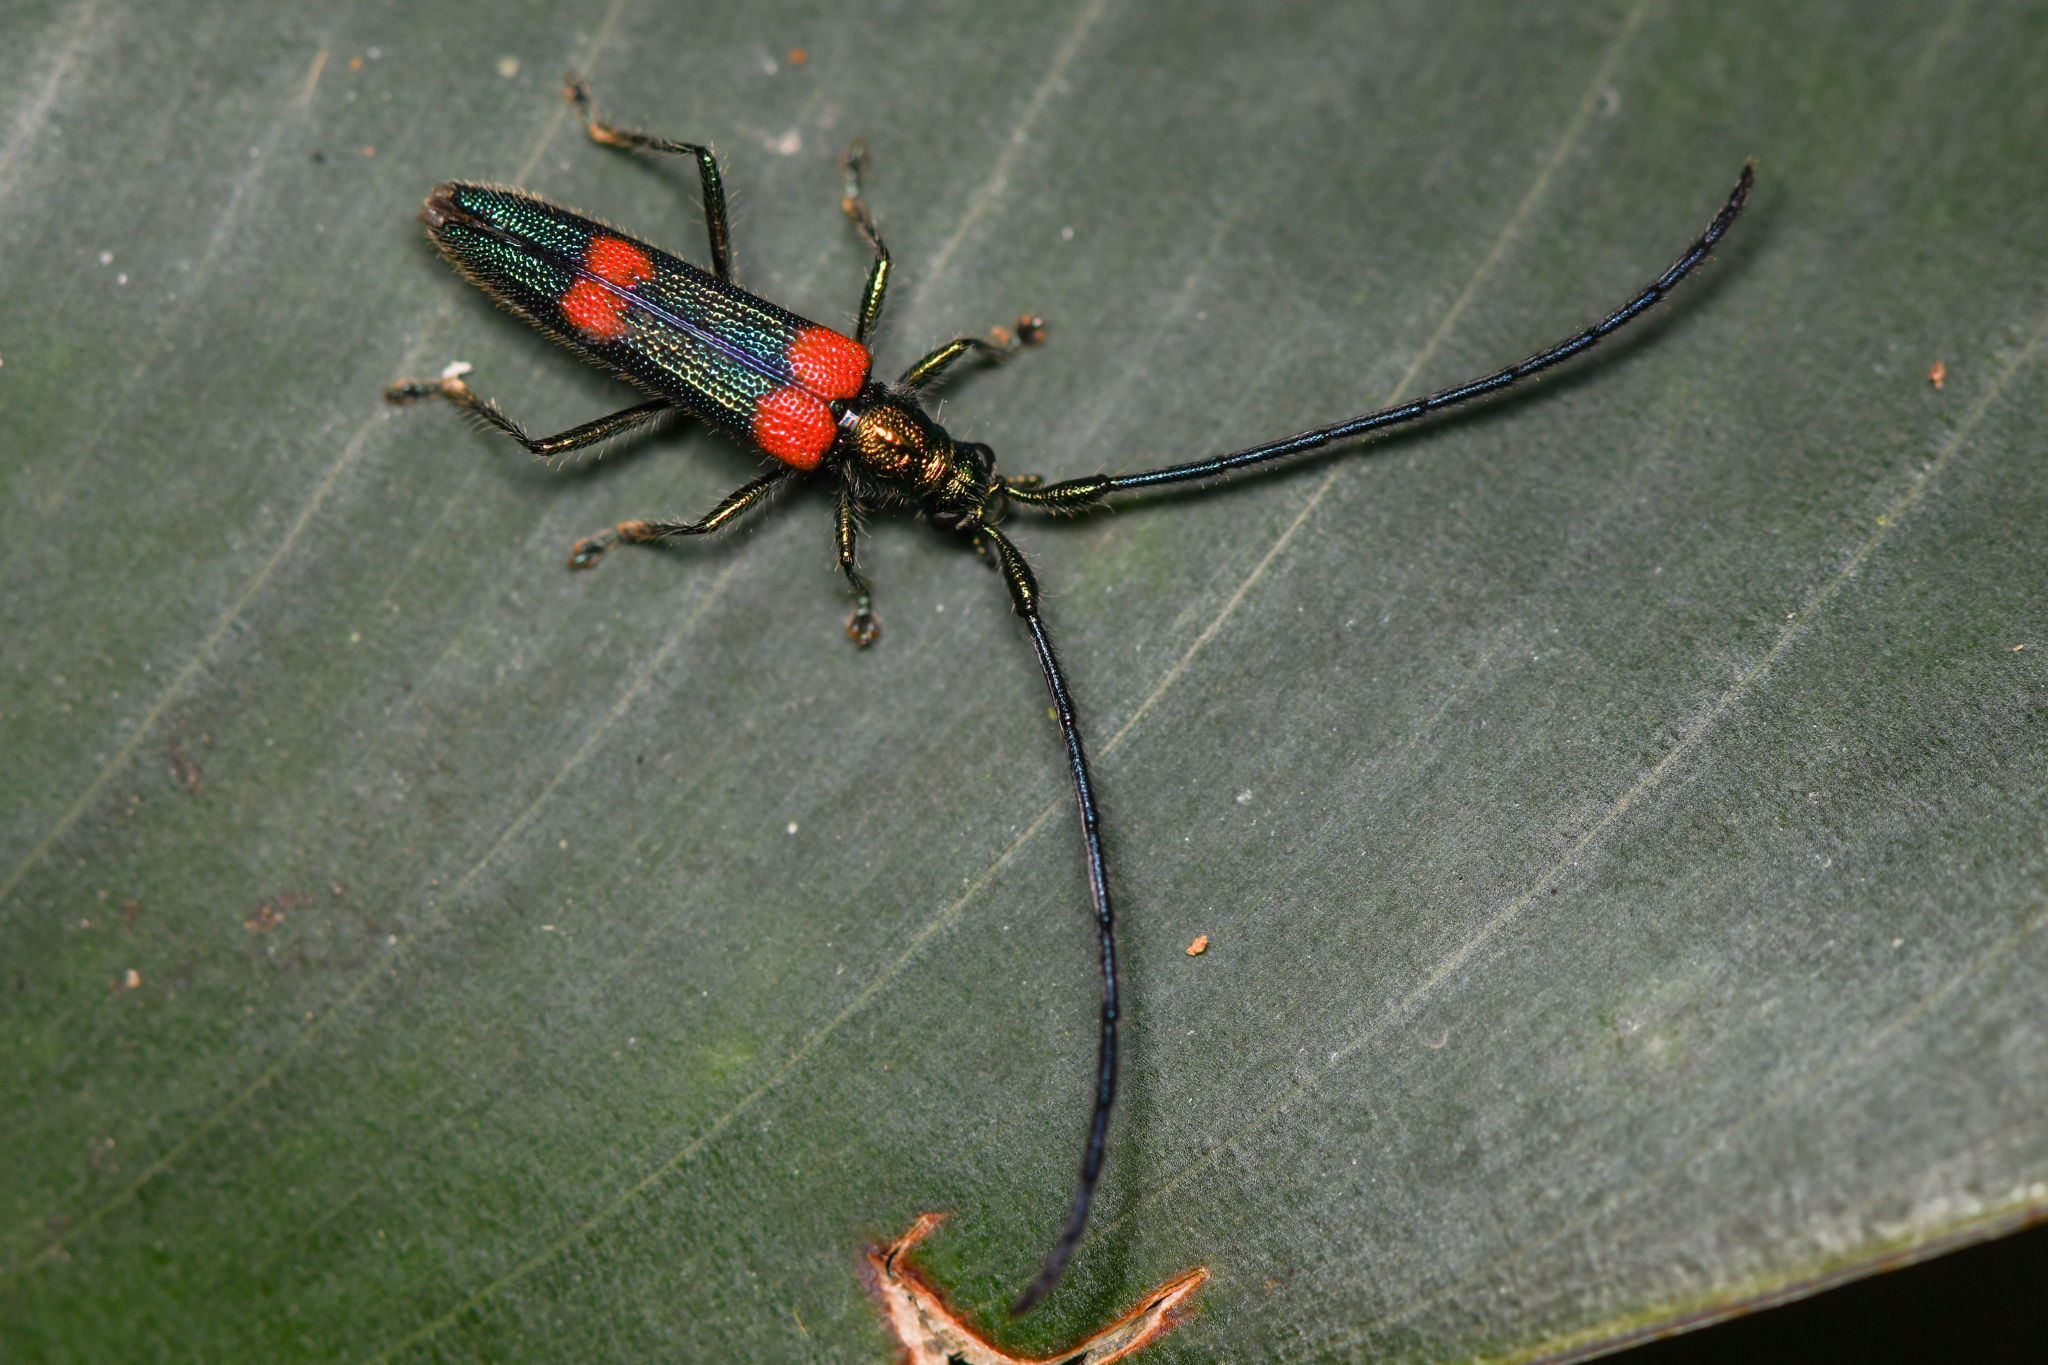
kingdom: Animalia
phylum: Arthropoda
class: Insecta
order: Coleoptera
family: Cerambycidae
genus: America
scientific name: America pulcherrima
